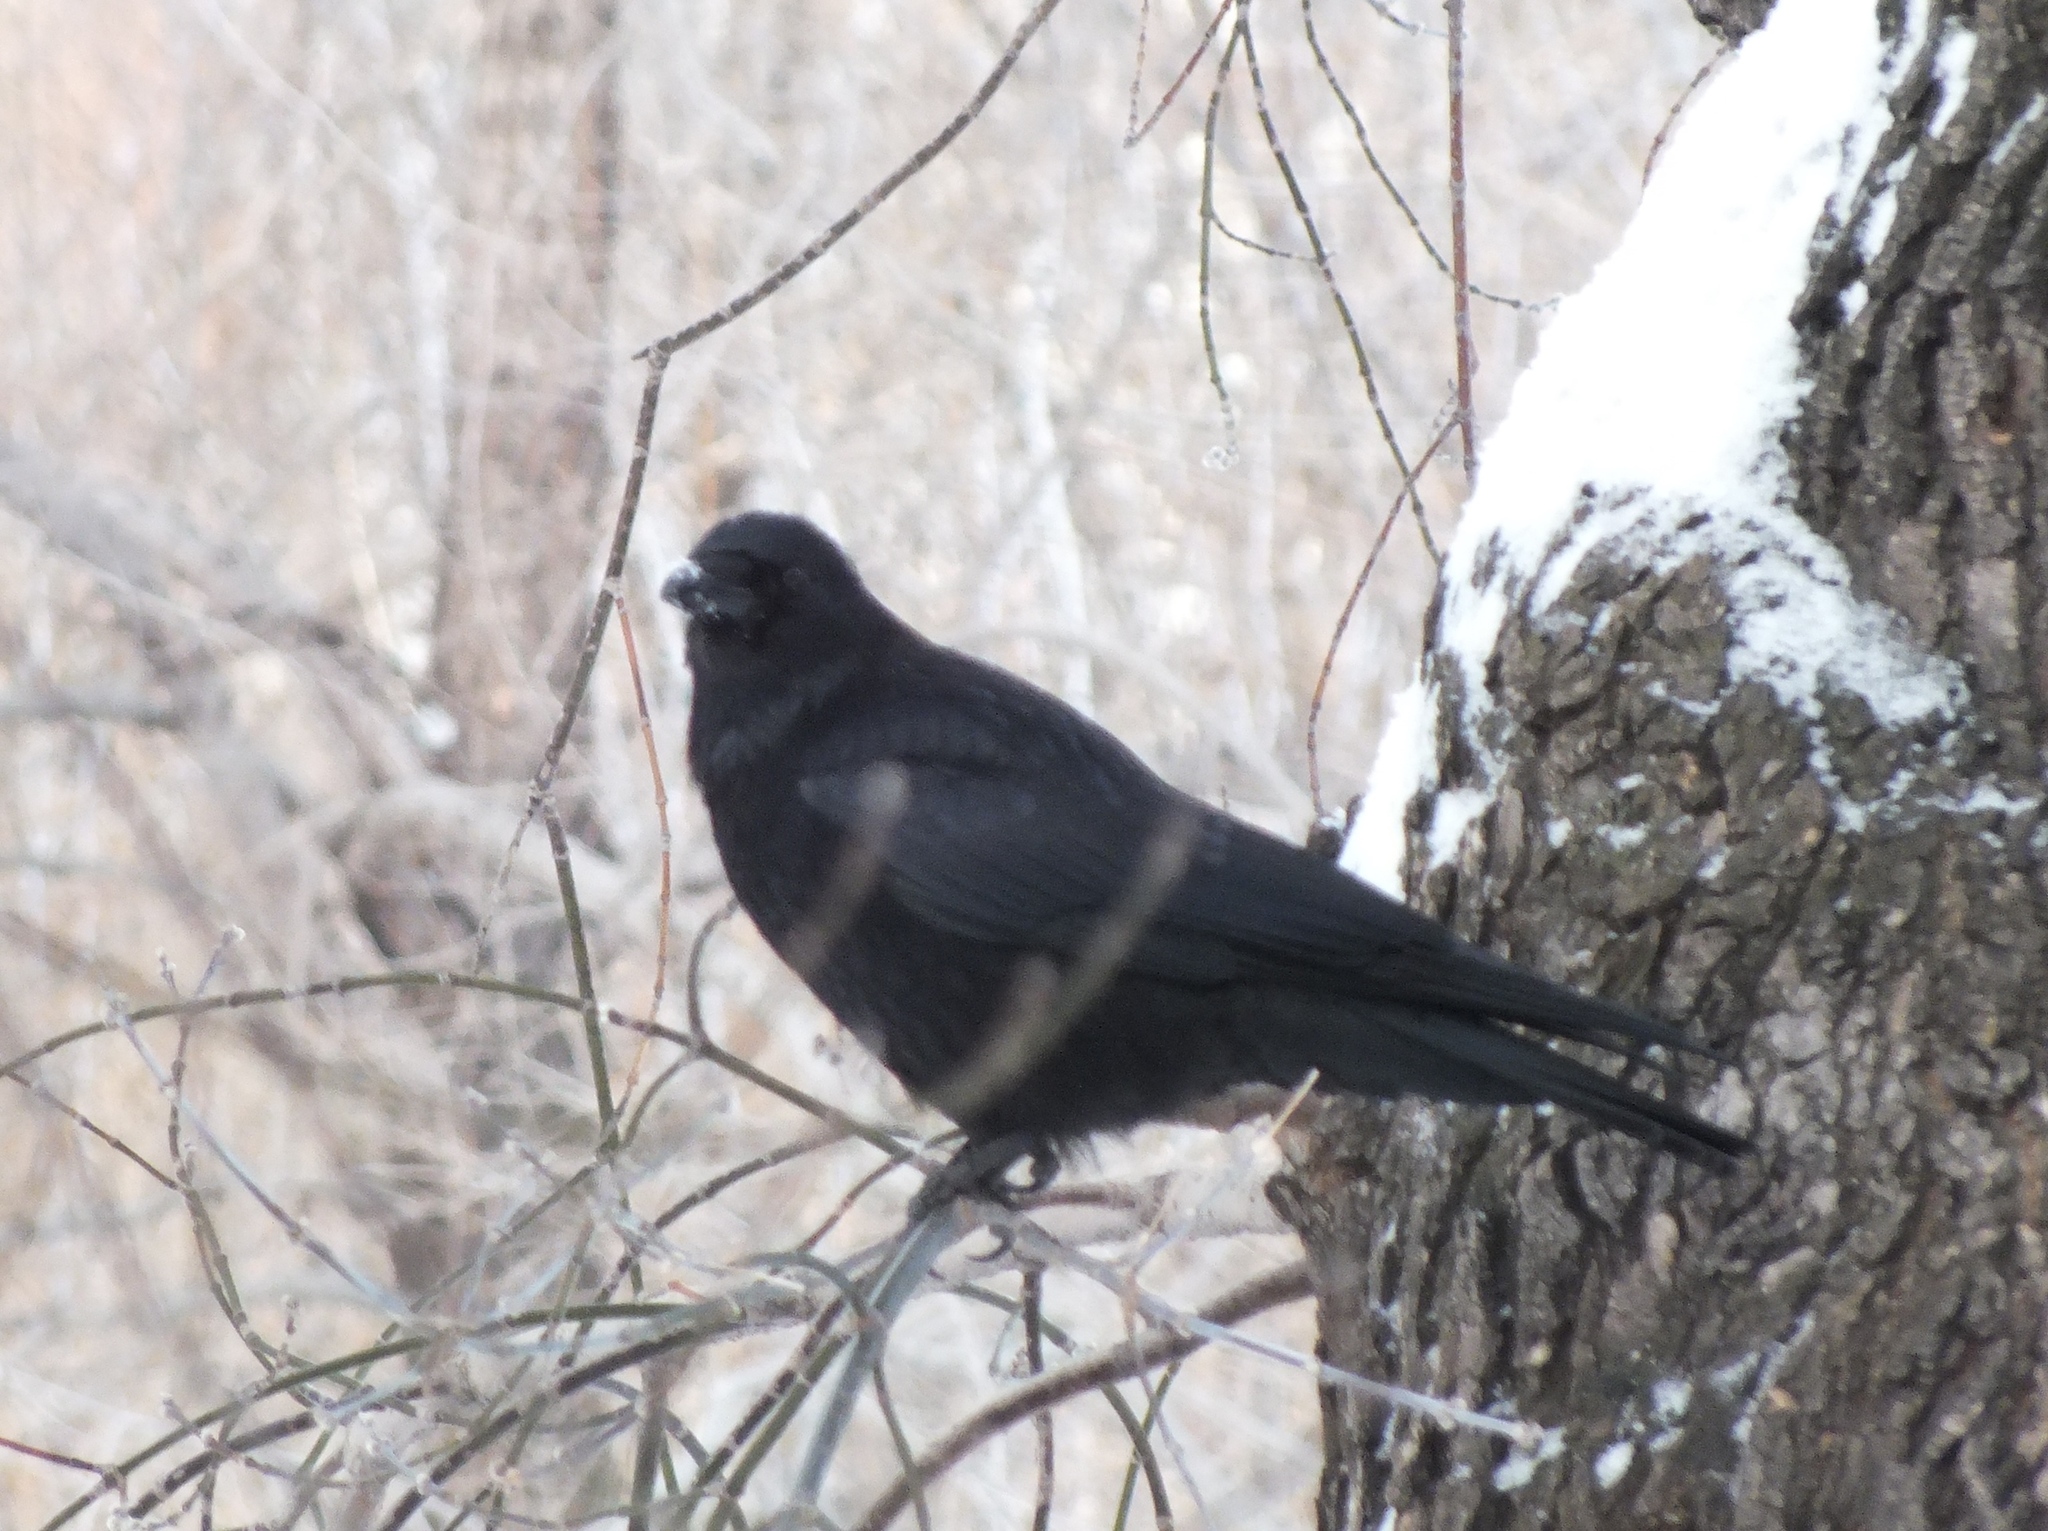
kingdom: Animalia
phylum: Chordata
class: Aves
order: Passeriformes
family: Corvidae
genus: Corvus
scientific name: Corvus corone
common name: Carrion crow
